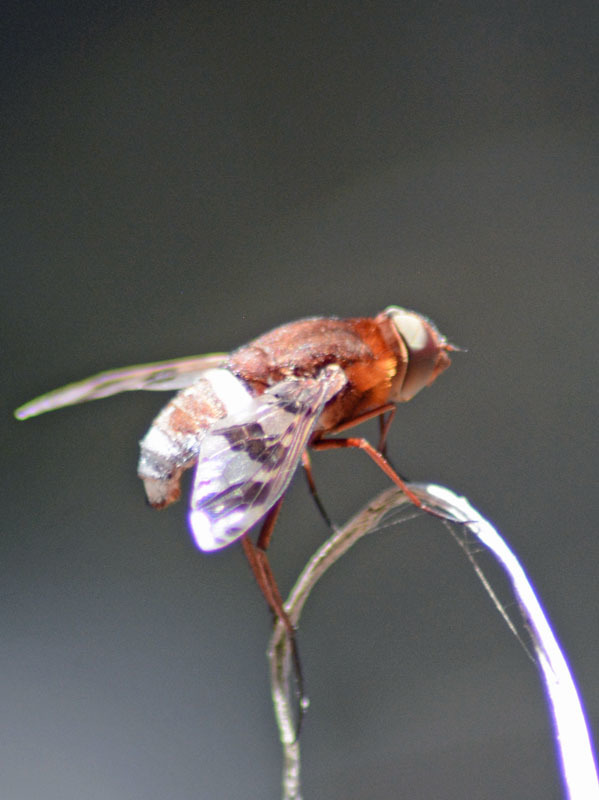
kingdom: Animalia
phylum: Arthropoda
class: Insecta
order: Diptera
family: Bombyliidae
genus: Nyia
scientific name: Nyia latreillei
